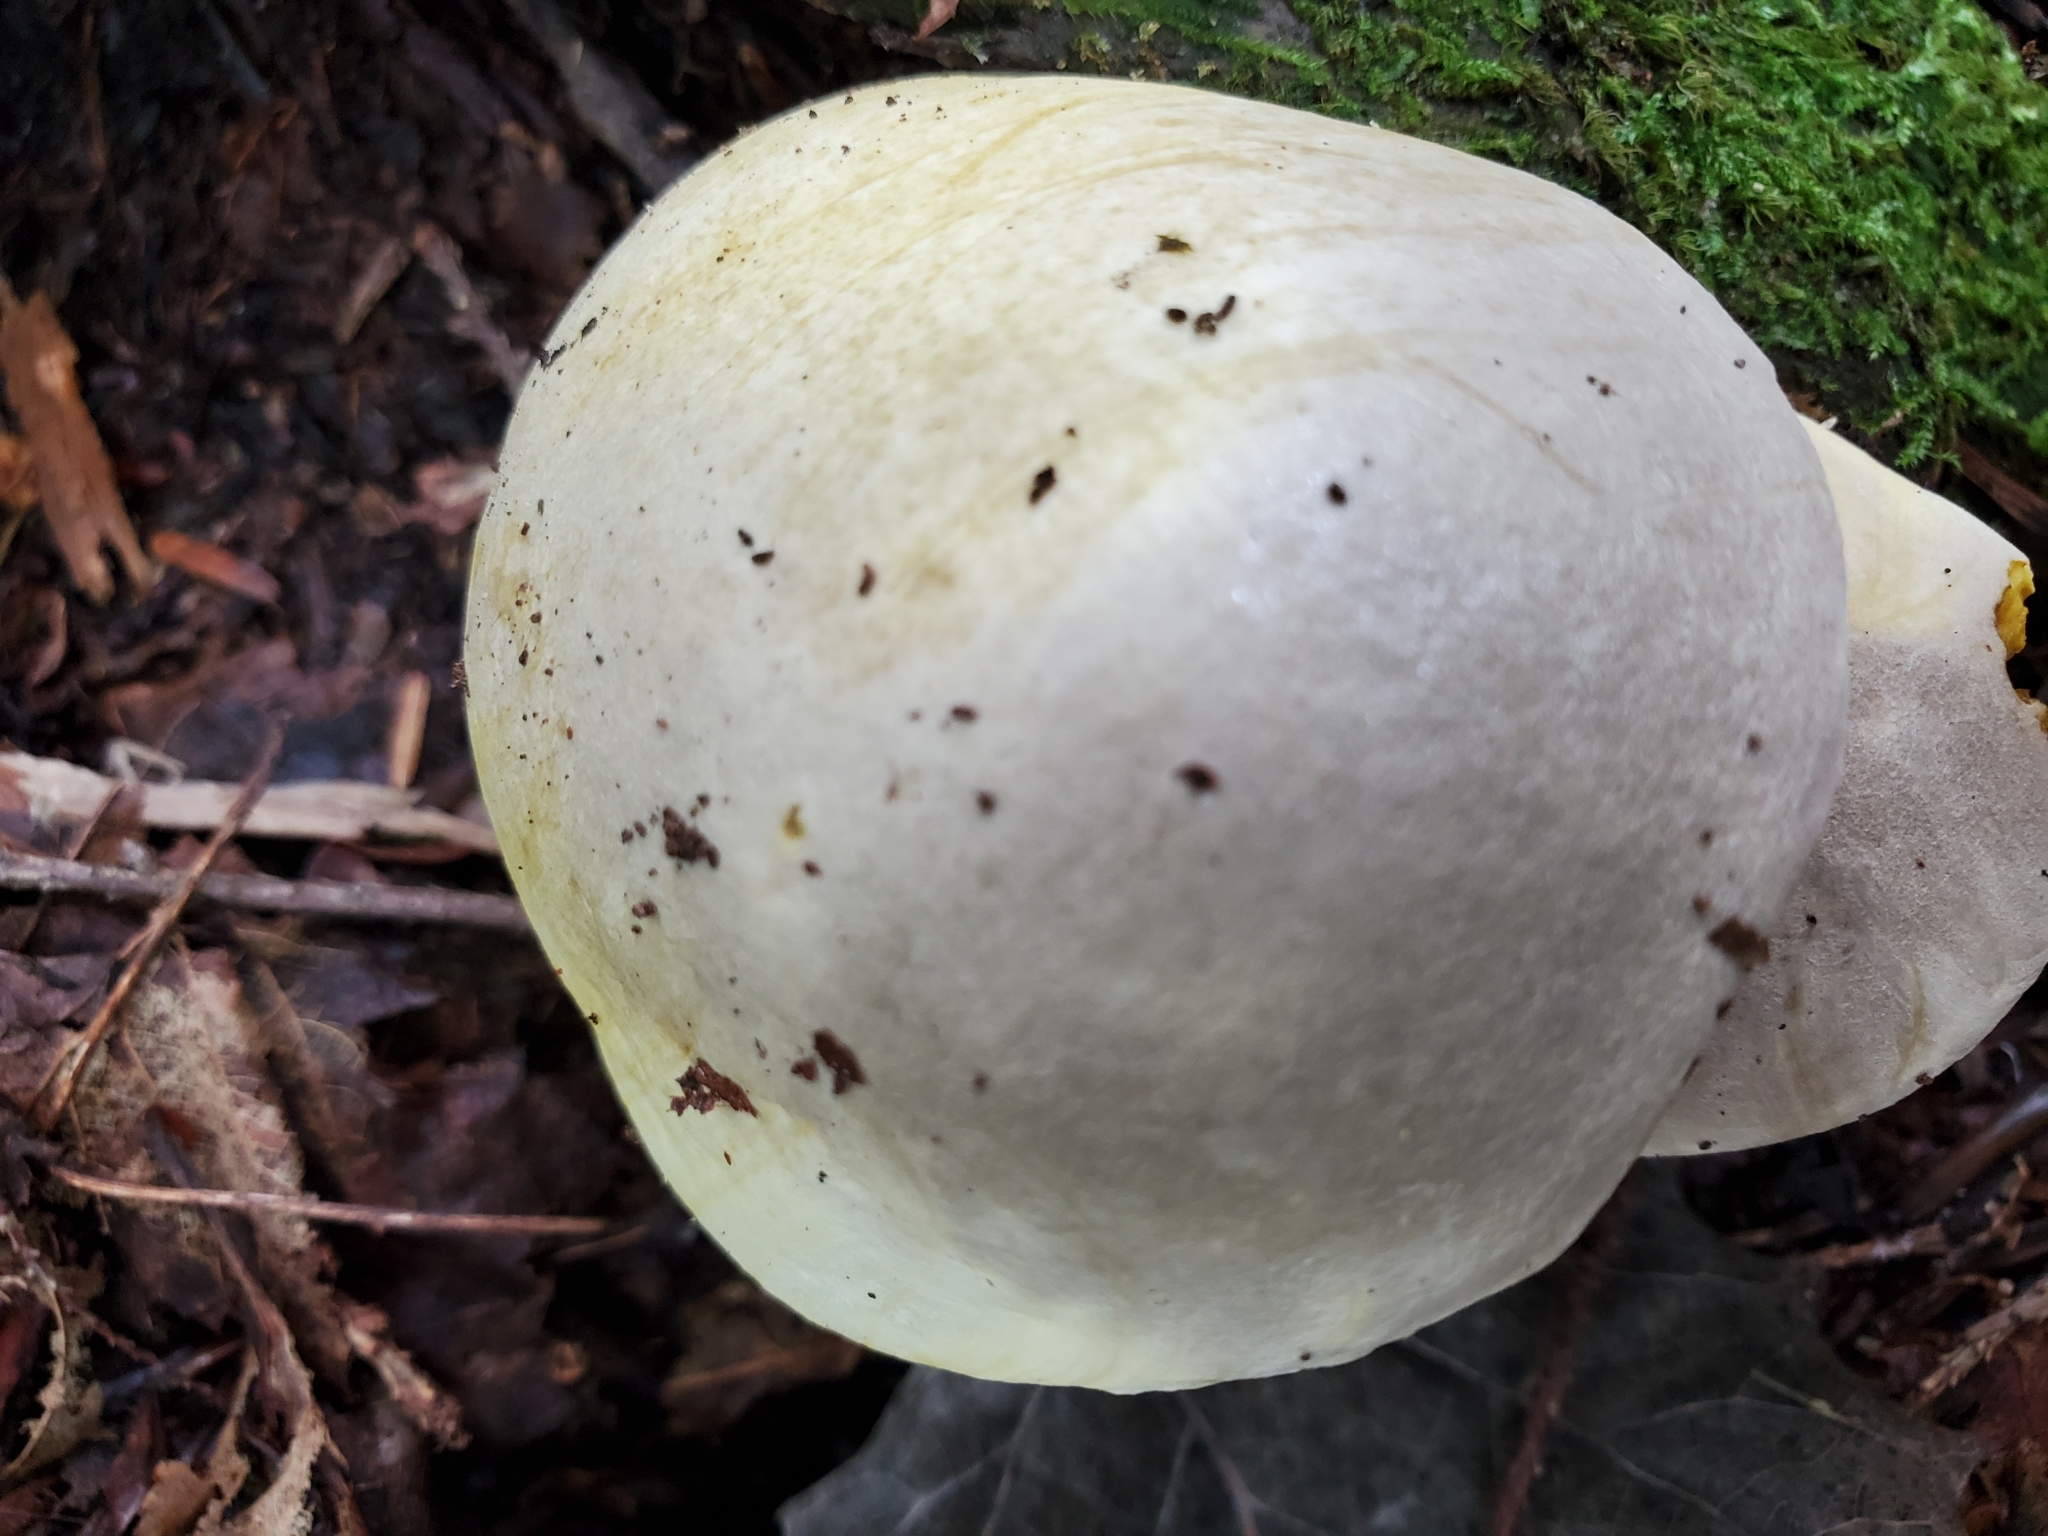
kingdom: Fungi
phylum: Basidiomycota
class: Agaricomycetes
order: Boletales
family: Boletaceae
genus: Retiboletus
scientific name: Retiboletus ornatipes
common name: Ornate-stalked bolete
